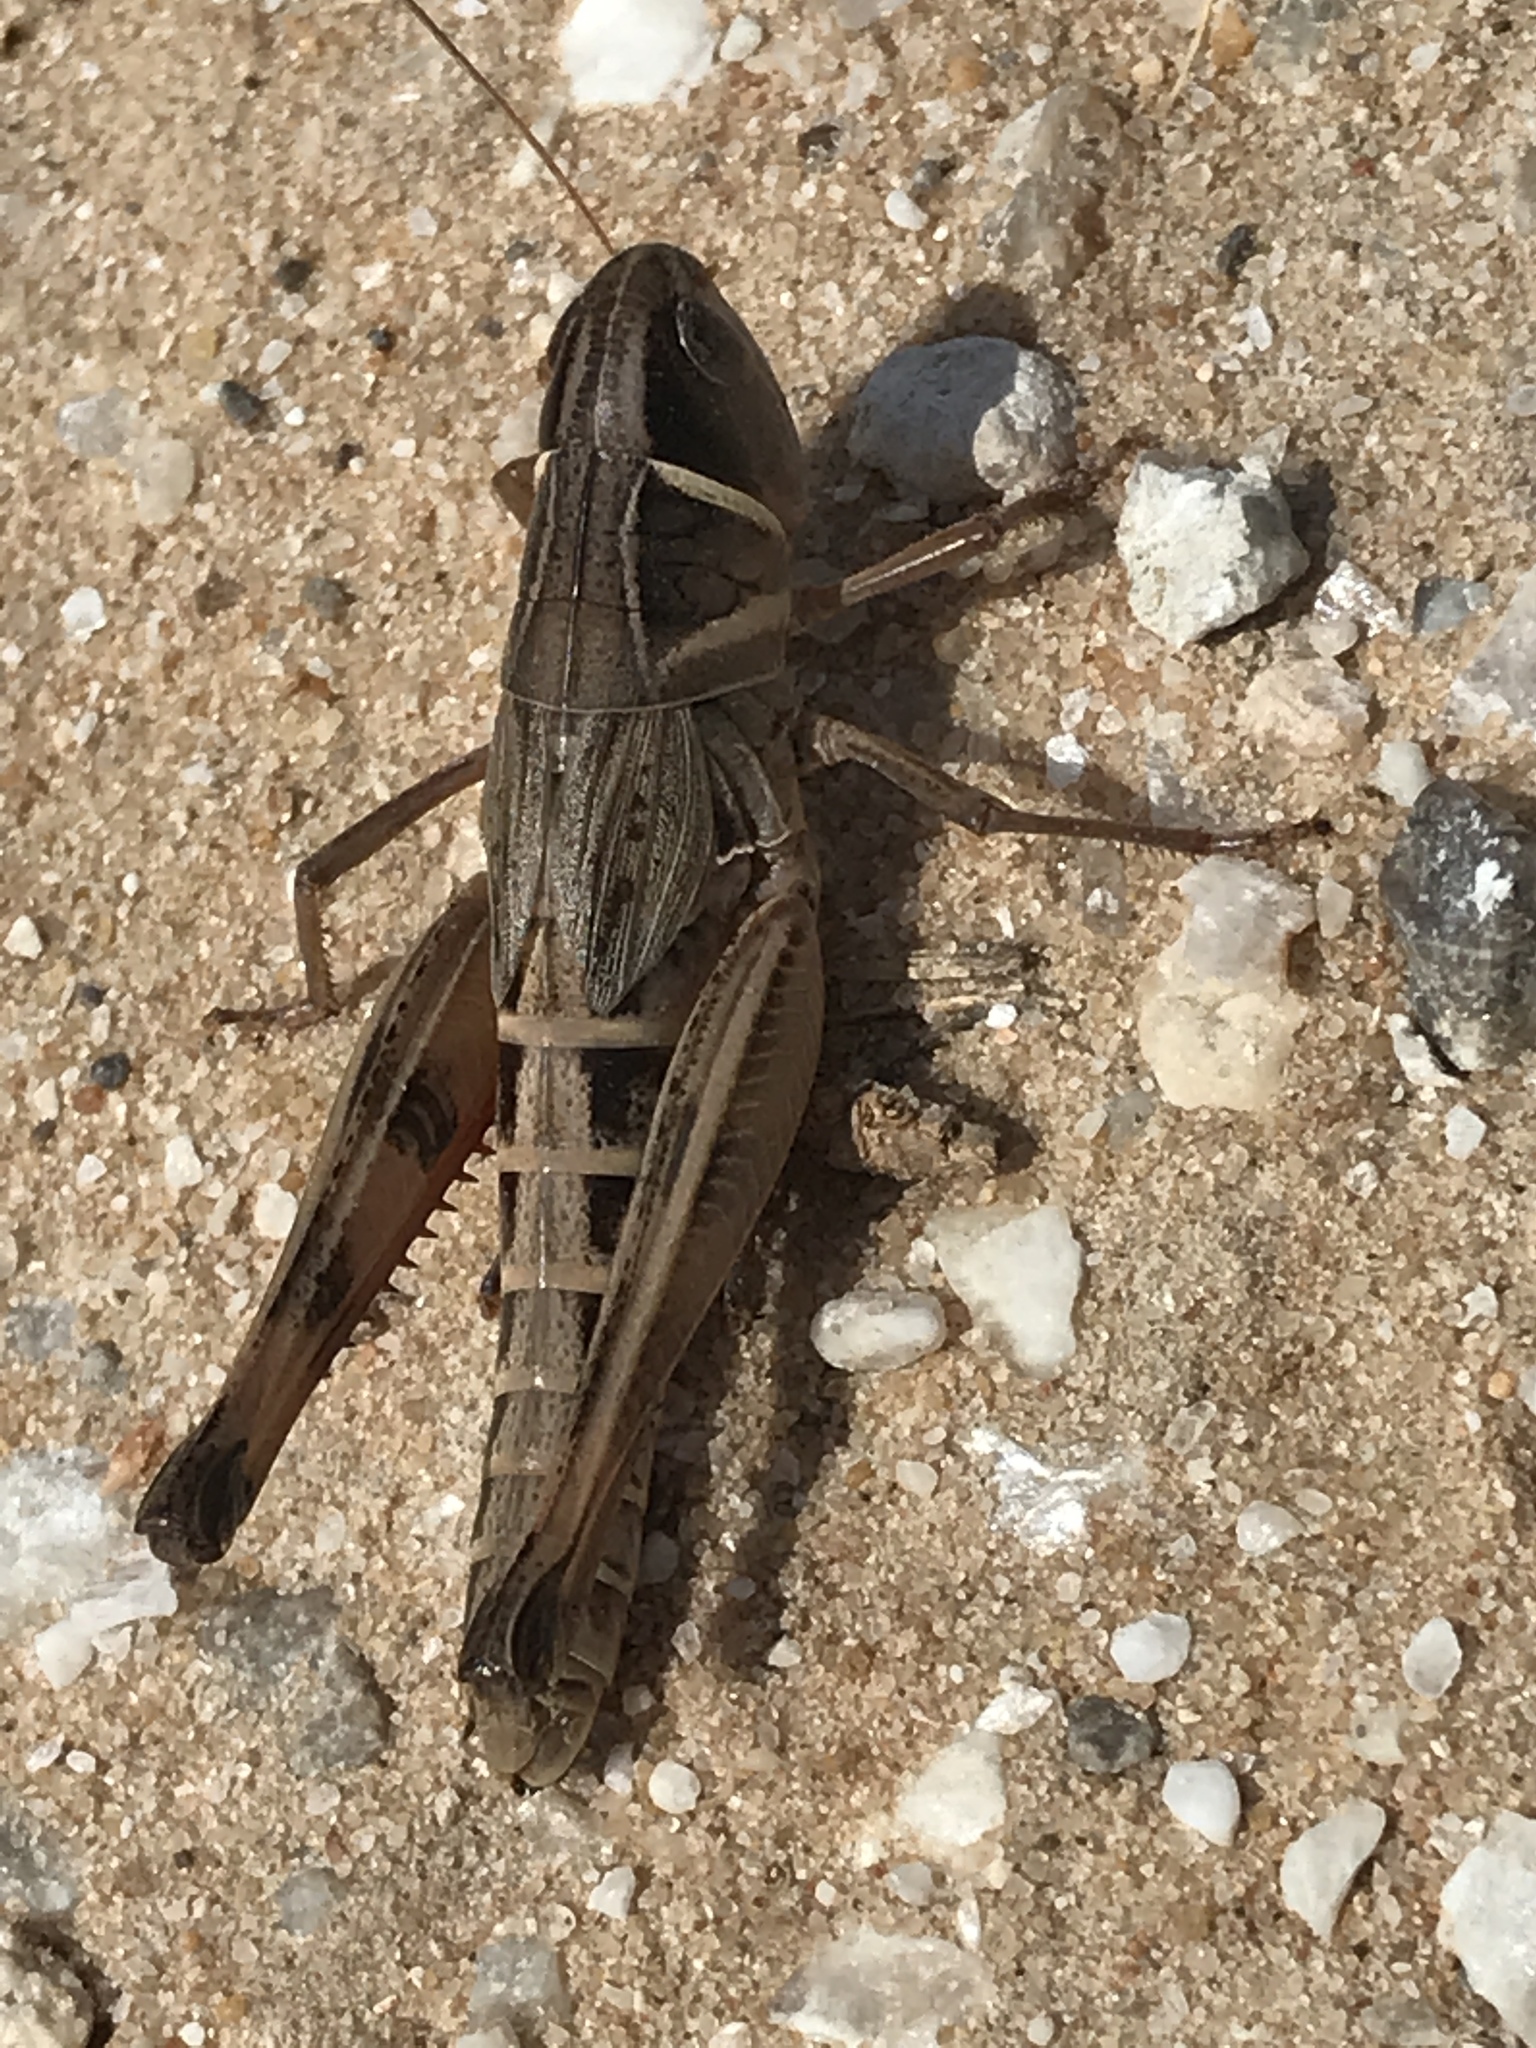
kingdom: Animalia
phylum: Arthropoda
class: Insecta
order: Orthoptera
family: Acrididae
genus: Boopedon
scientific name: Boopedon auriventris
